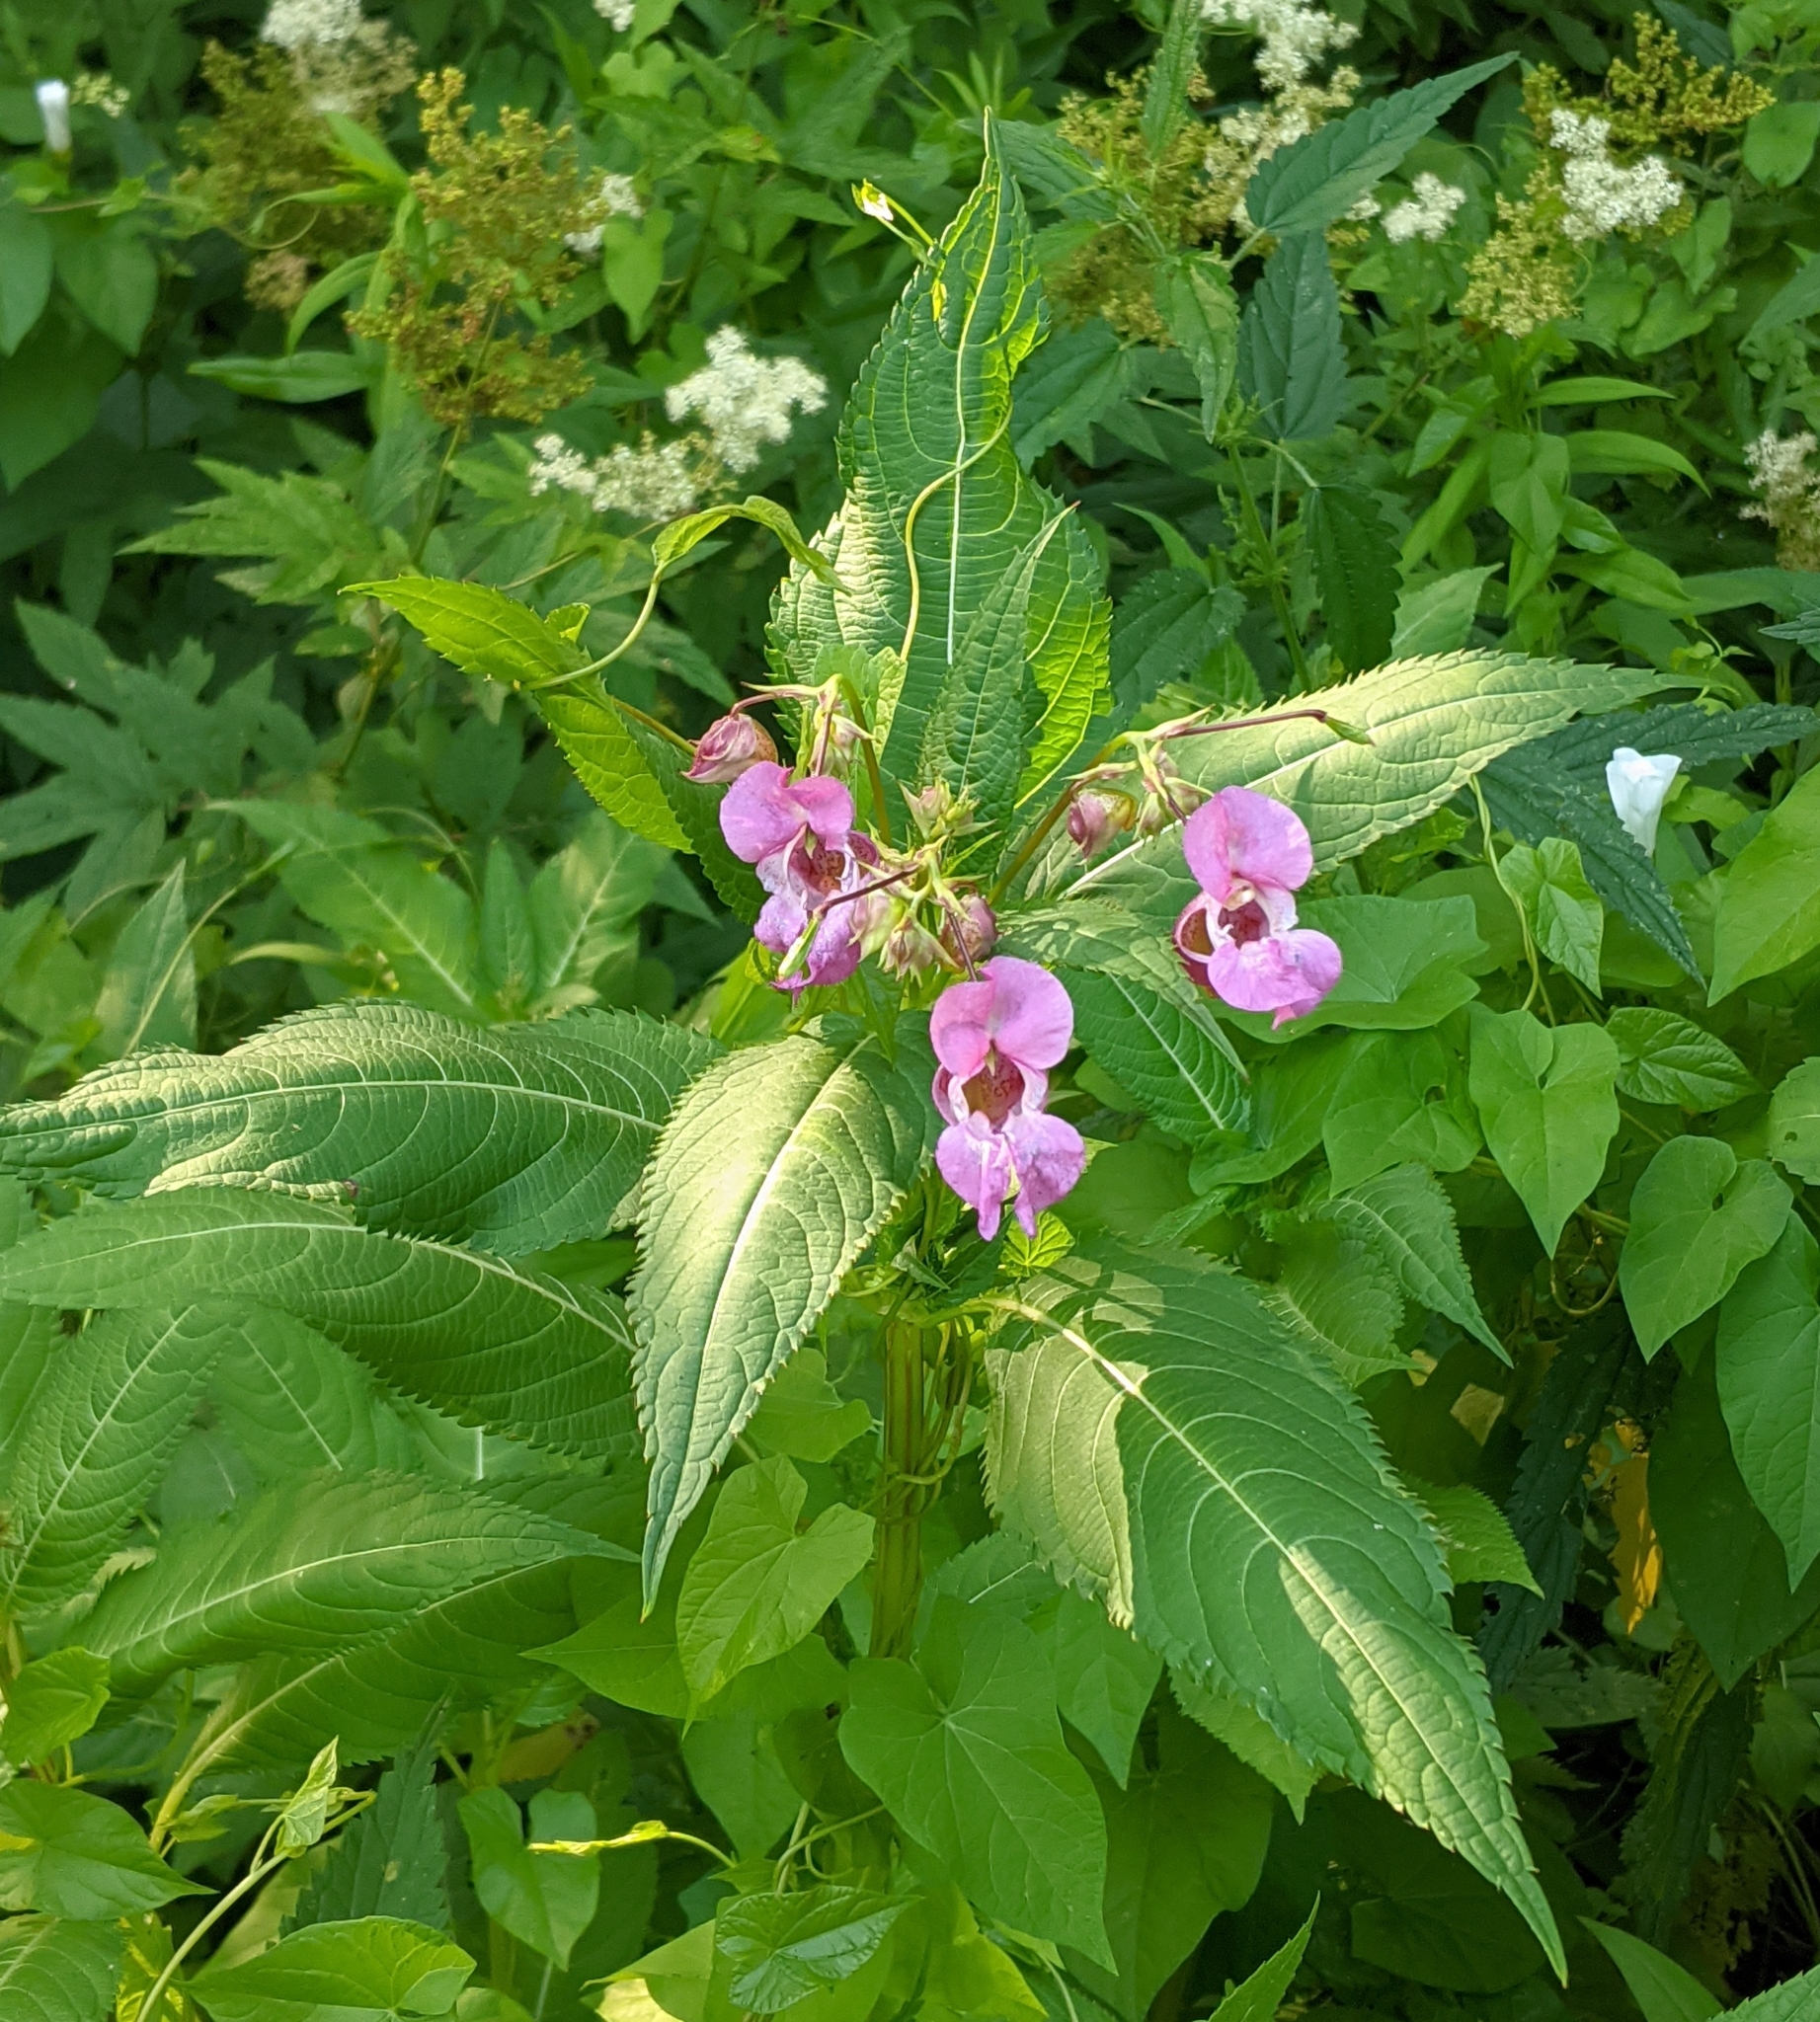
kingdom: Plantae
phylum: Tracheophyta
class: Magnoliopsida
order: Ericales
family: Balsaminaceae
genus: Impatiens
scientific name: Impatiens glandulifera
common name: Himalayan balsam
